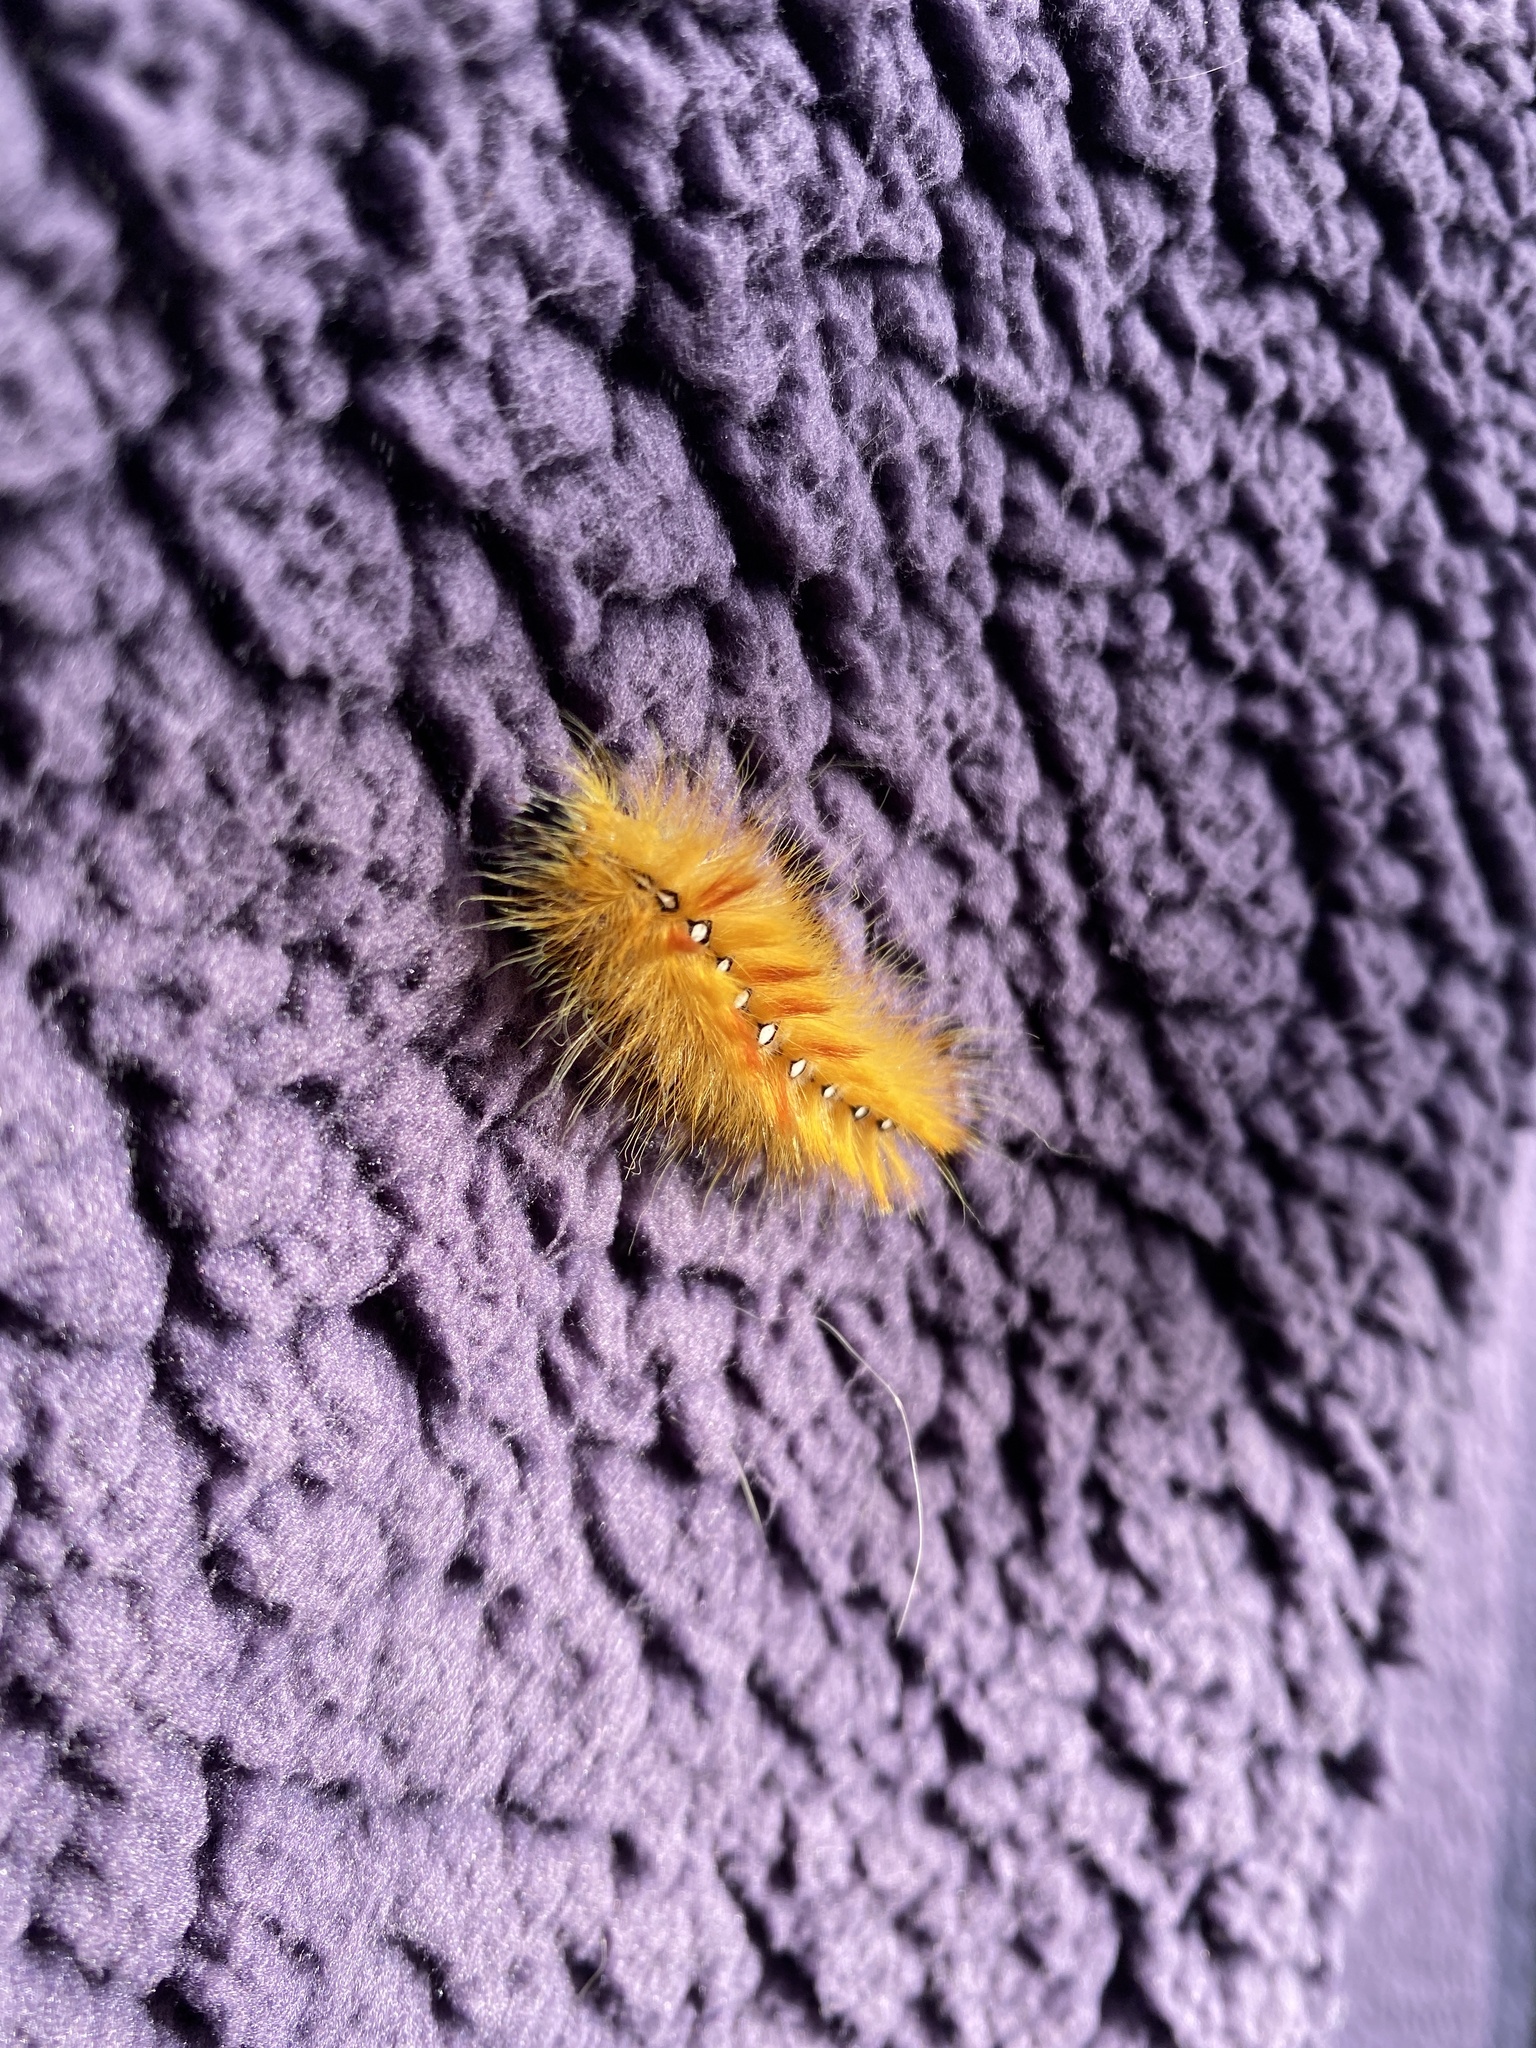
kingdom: Animalia
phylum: Arthropoda
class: Insecta
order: Lepidoptera
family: Noctuidae
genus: Acronicta
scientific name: Acronicta aceris
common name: Sycamore
